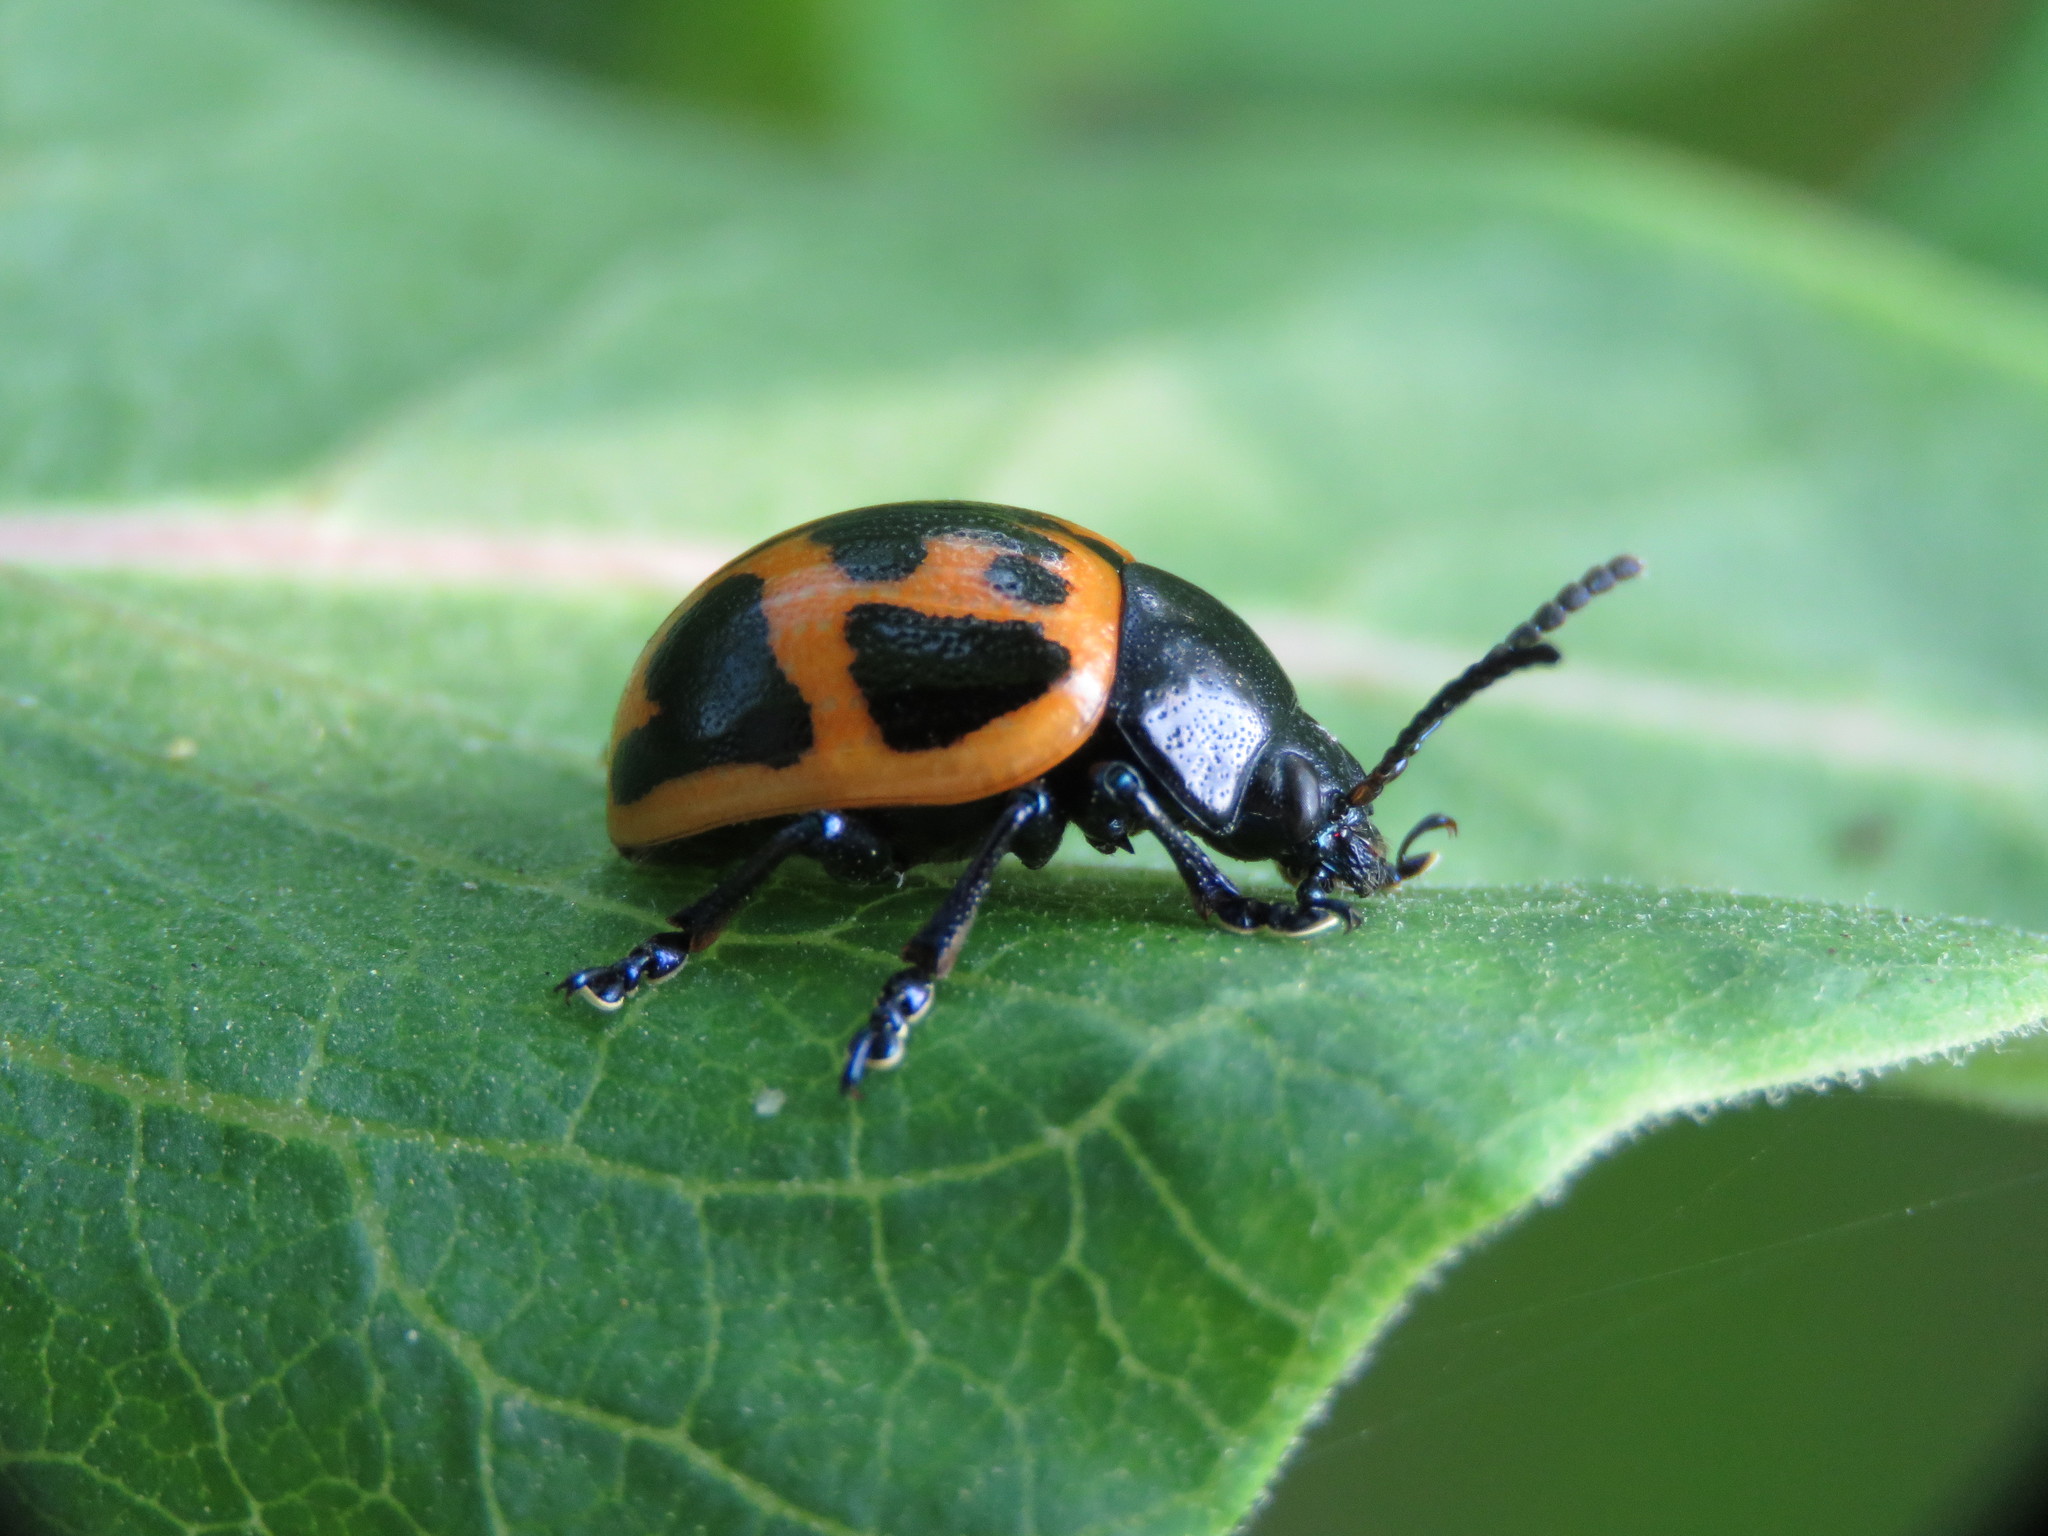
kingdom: Animalia
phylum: Arthropoda
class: Insecta
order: Coleoptera
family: Chrysomelidae
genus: Labidomera
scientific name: Labidomera clivicollis
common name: Swamp milkweed leaf beetle
